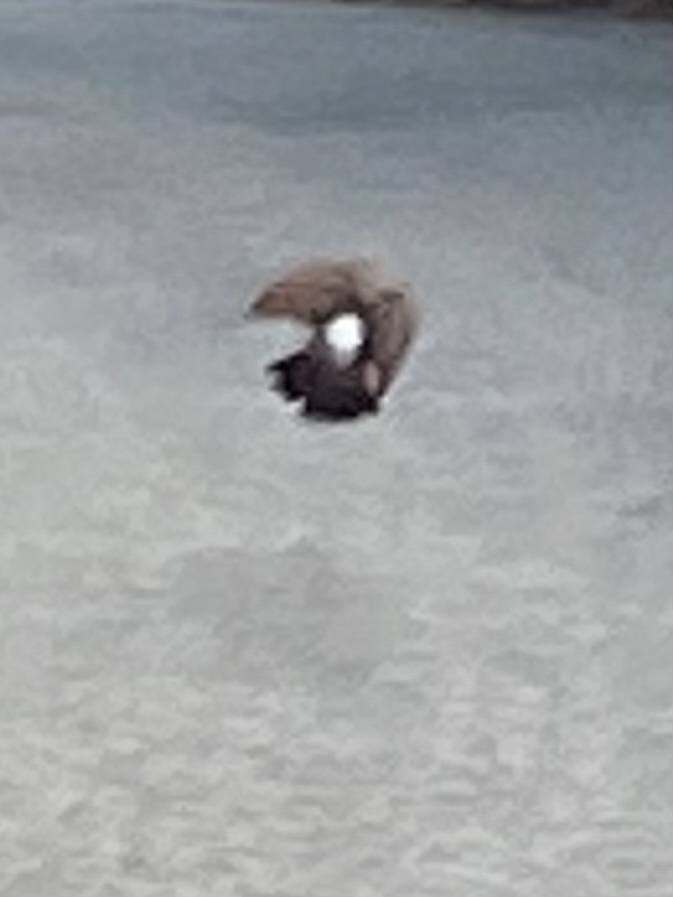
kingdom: Animalia
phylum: Chordata
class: Aves
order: Piciformes
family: Picidae
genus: Colaptes
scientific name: Colaptes auratus
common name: Northern flicker
